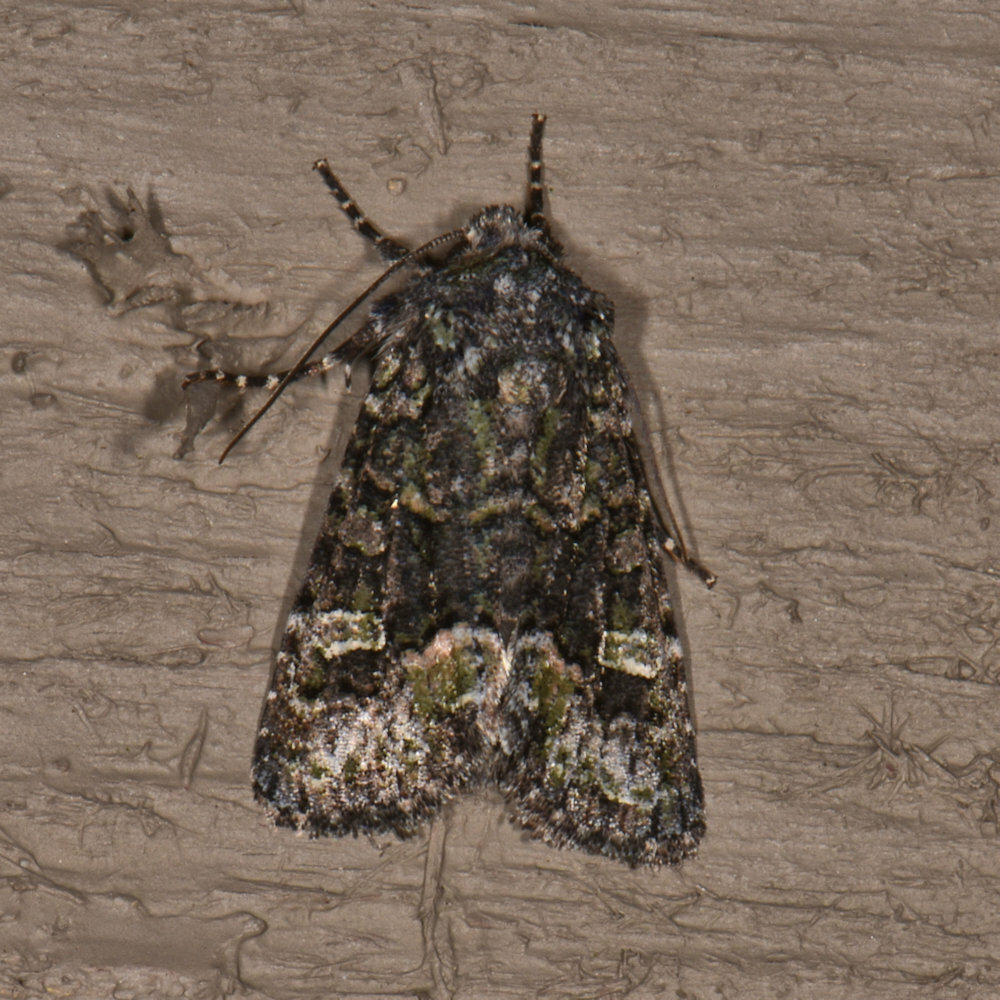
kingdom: Animalia
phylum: Arthropoda
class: Insecta
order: Lepidoptera
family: Noctuidae
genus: Lacinipolia
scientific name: Lacinipolia renigera
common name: Kidney-spotted minor
